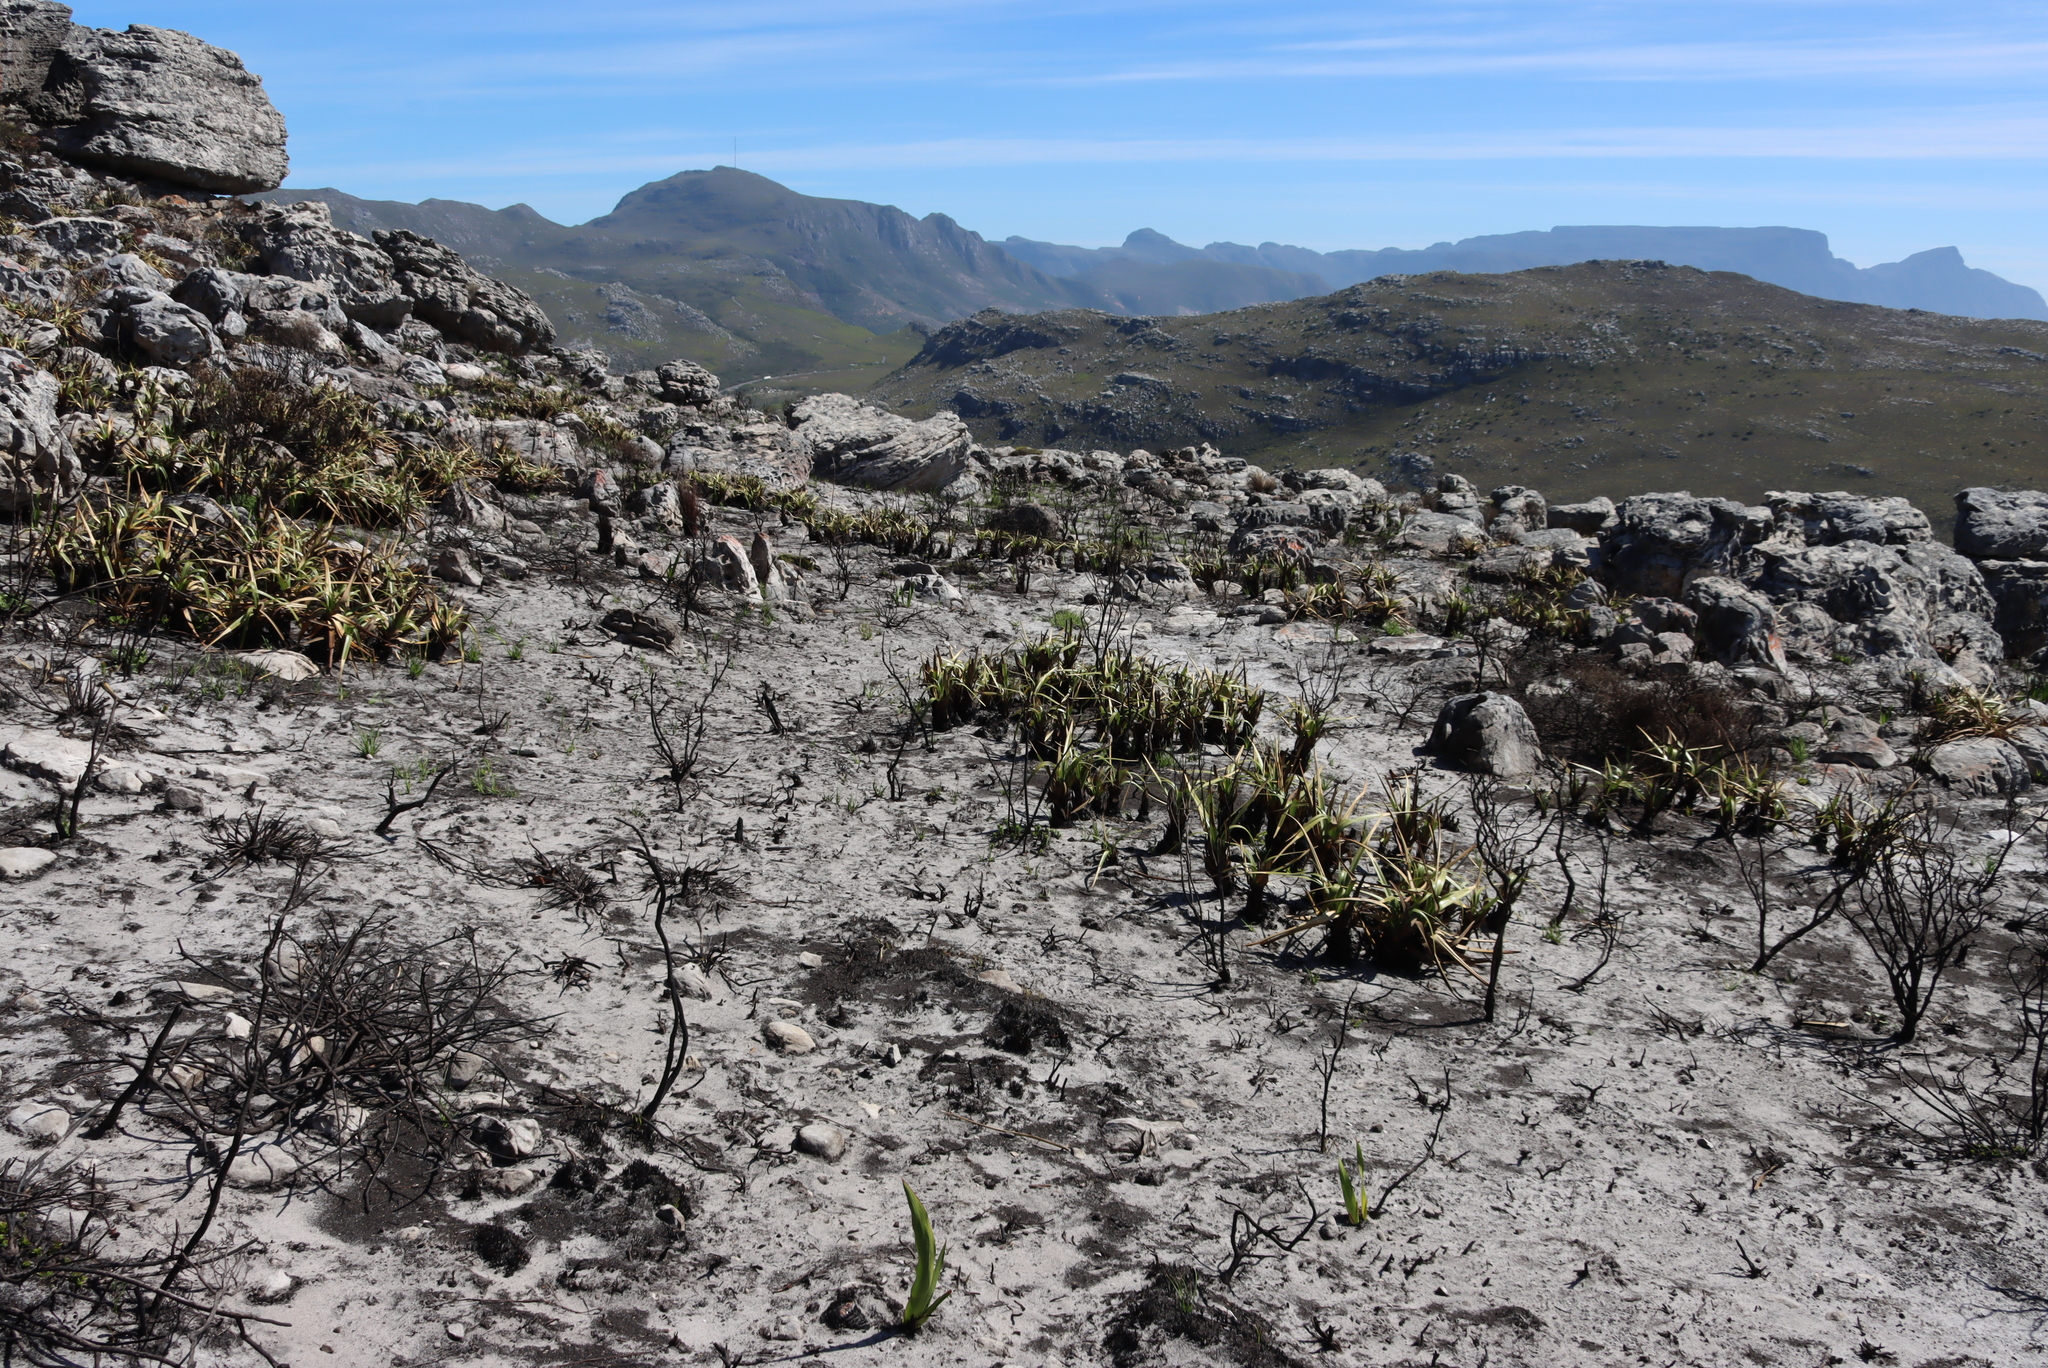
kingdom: Plantae
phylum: Tracheophyta
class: Liliopsida
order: Poales
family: Cyperaceae
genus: Tetraria
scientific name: Tetraria thermalis
